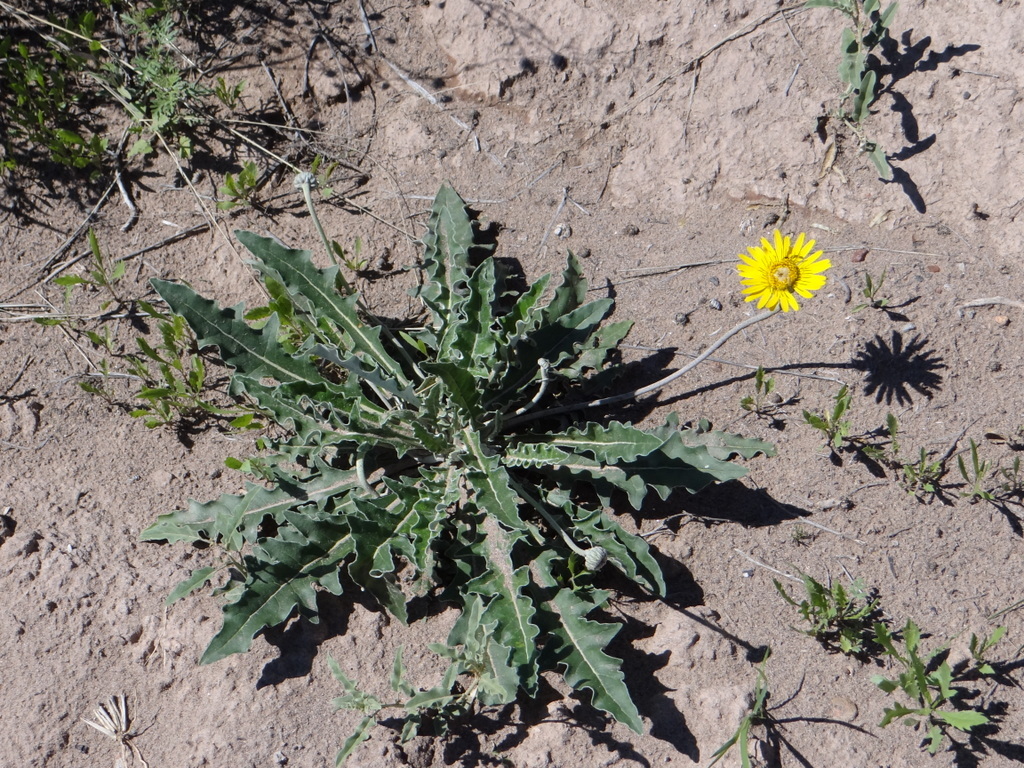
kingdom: Plantae
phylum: Tracheophyta
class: Magnoliopsida
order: Asterales
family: Asteraceae
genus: Trichocline
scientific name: Trichocline sinuata
